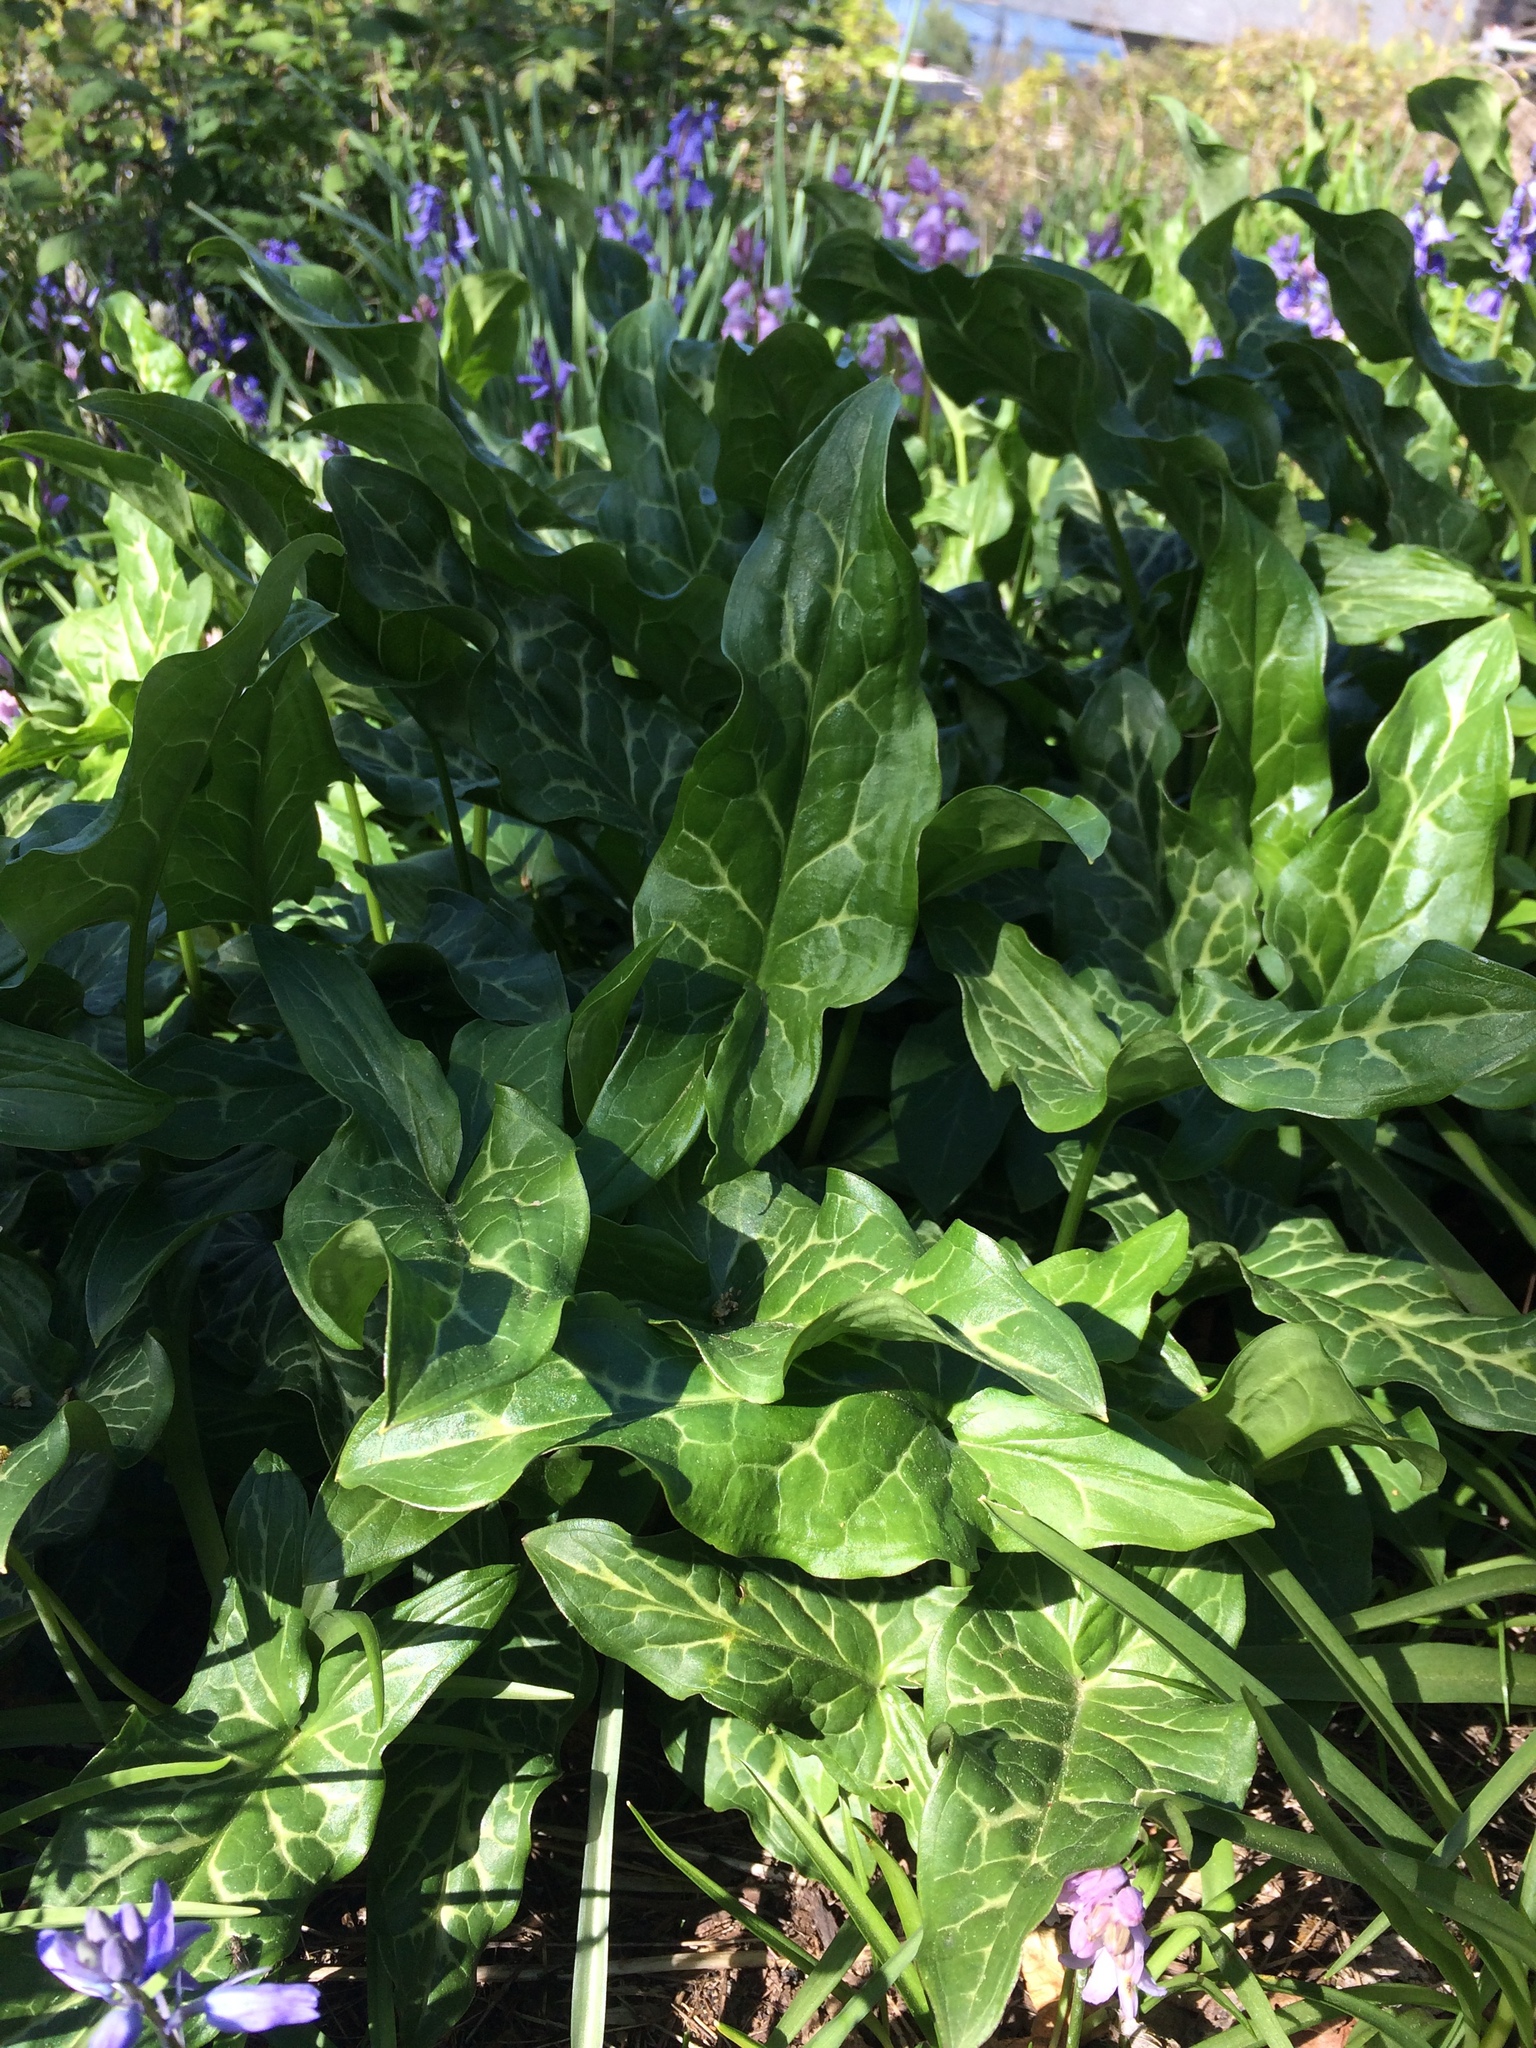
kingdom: Plantae
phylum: Tracheophyta
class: Liliopsida
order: Alismatales
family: Araceae
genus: Arum
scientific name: Arum italicum
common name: Italian lords-and-ladies
